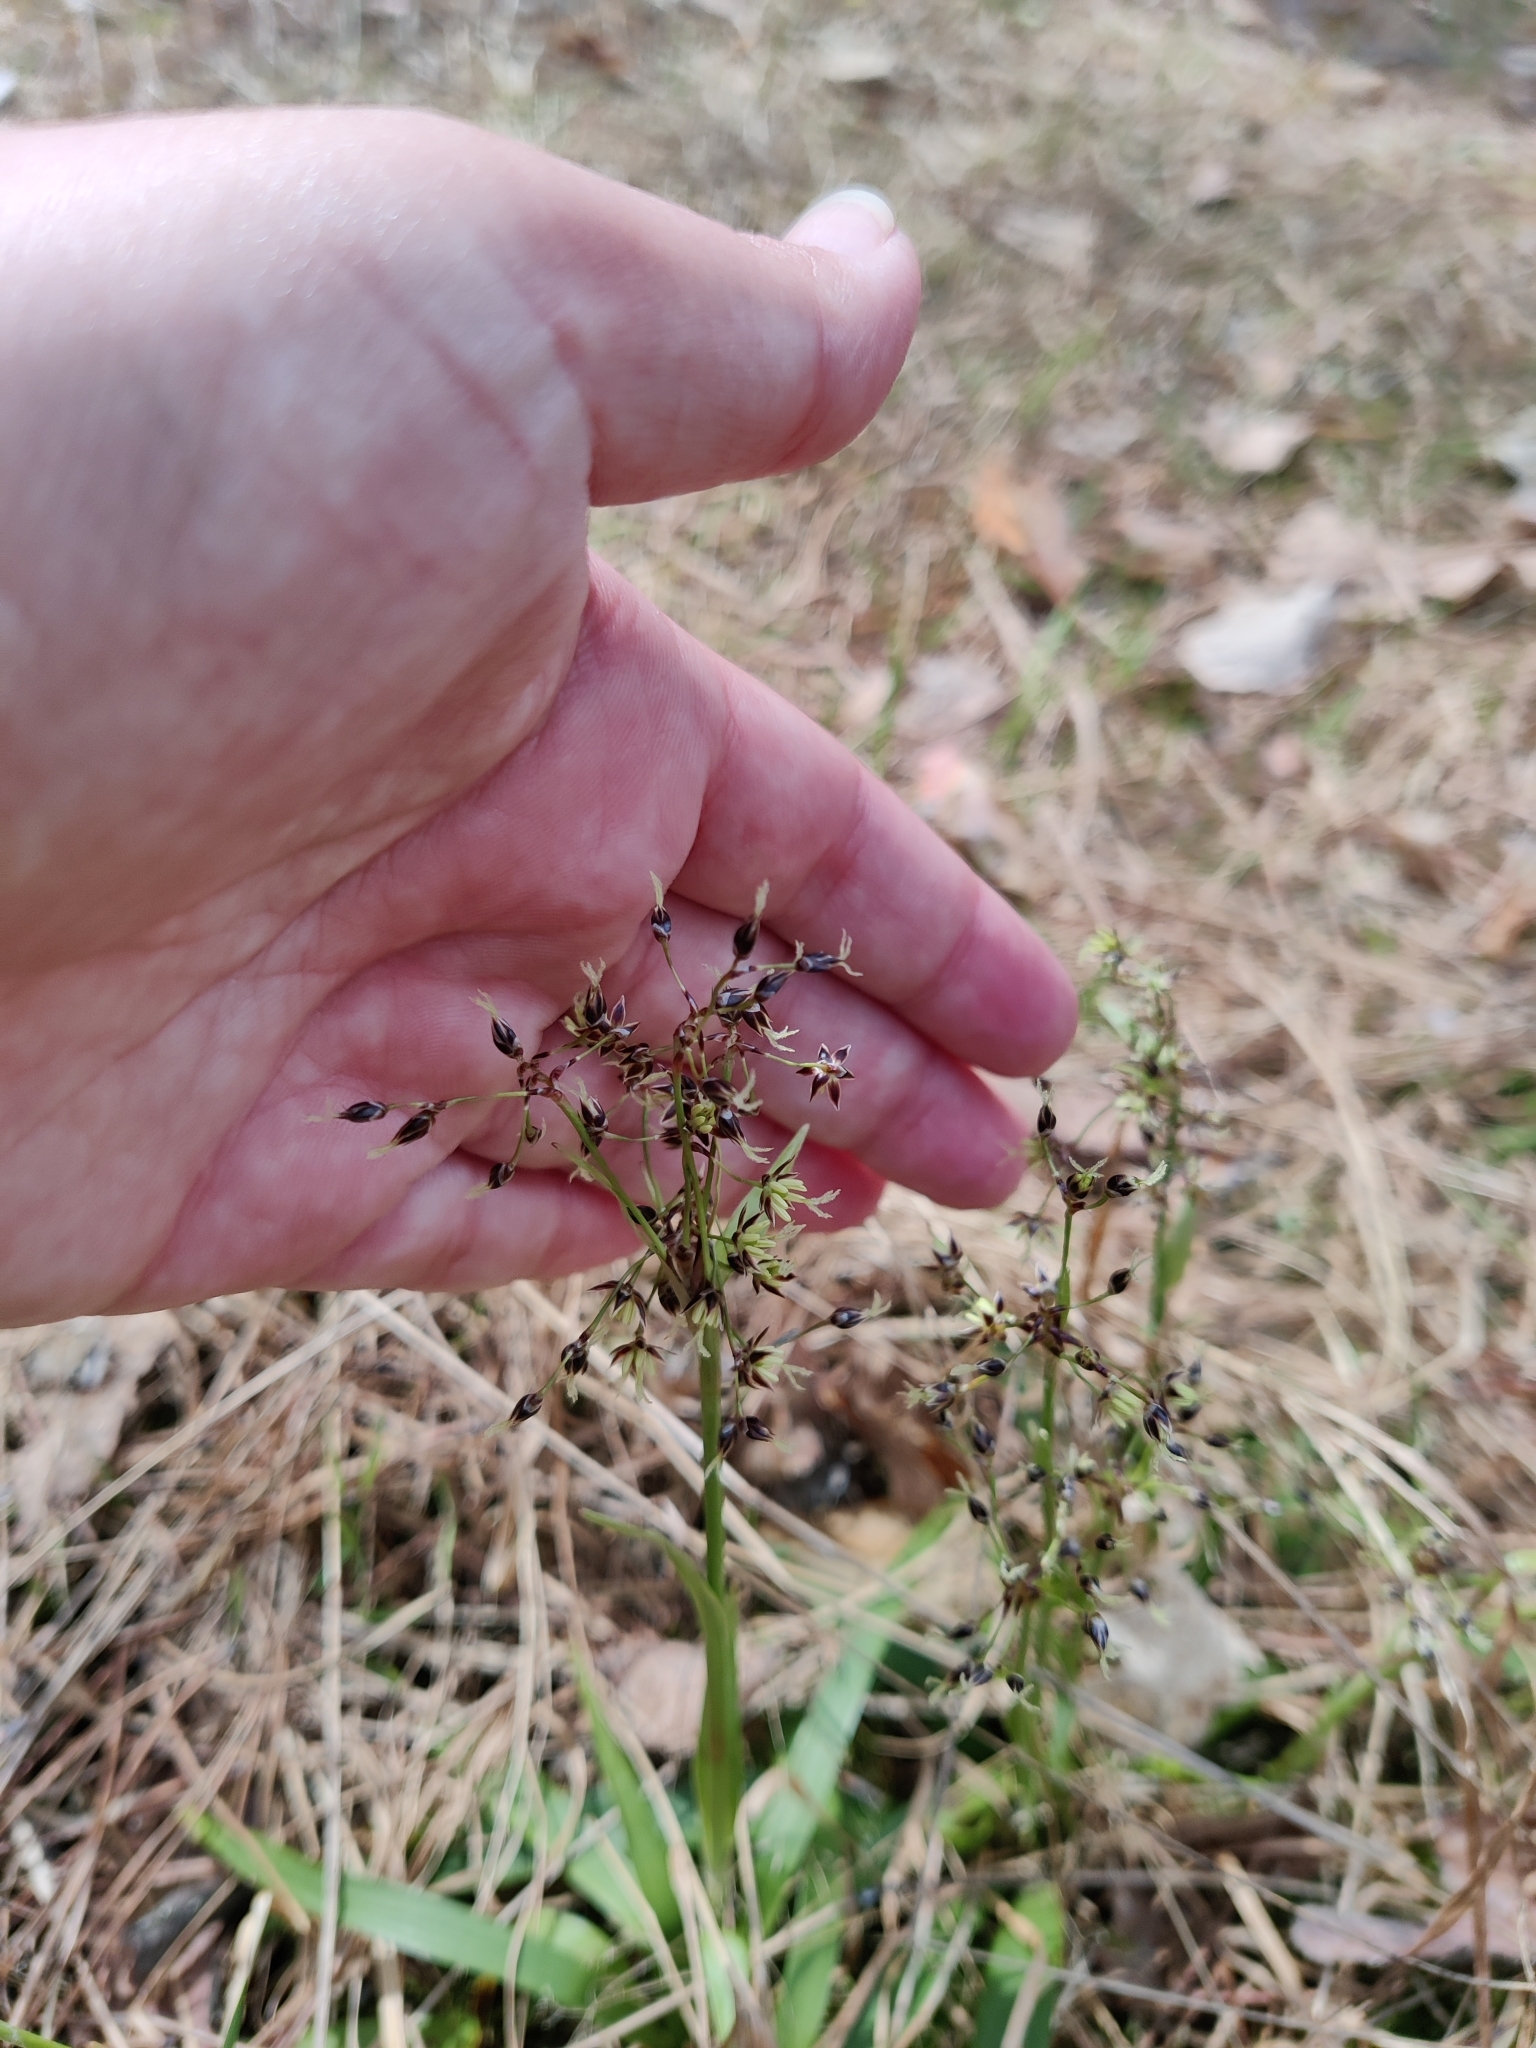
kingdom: Plantae
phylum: Tracheophyta
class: Liliopsida
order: Poales
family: Juncaceae
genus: Luzula
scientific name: Luzula pilosa
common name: Hairy wood-rush
